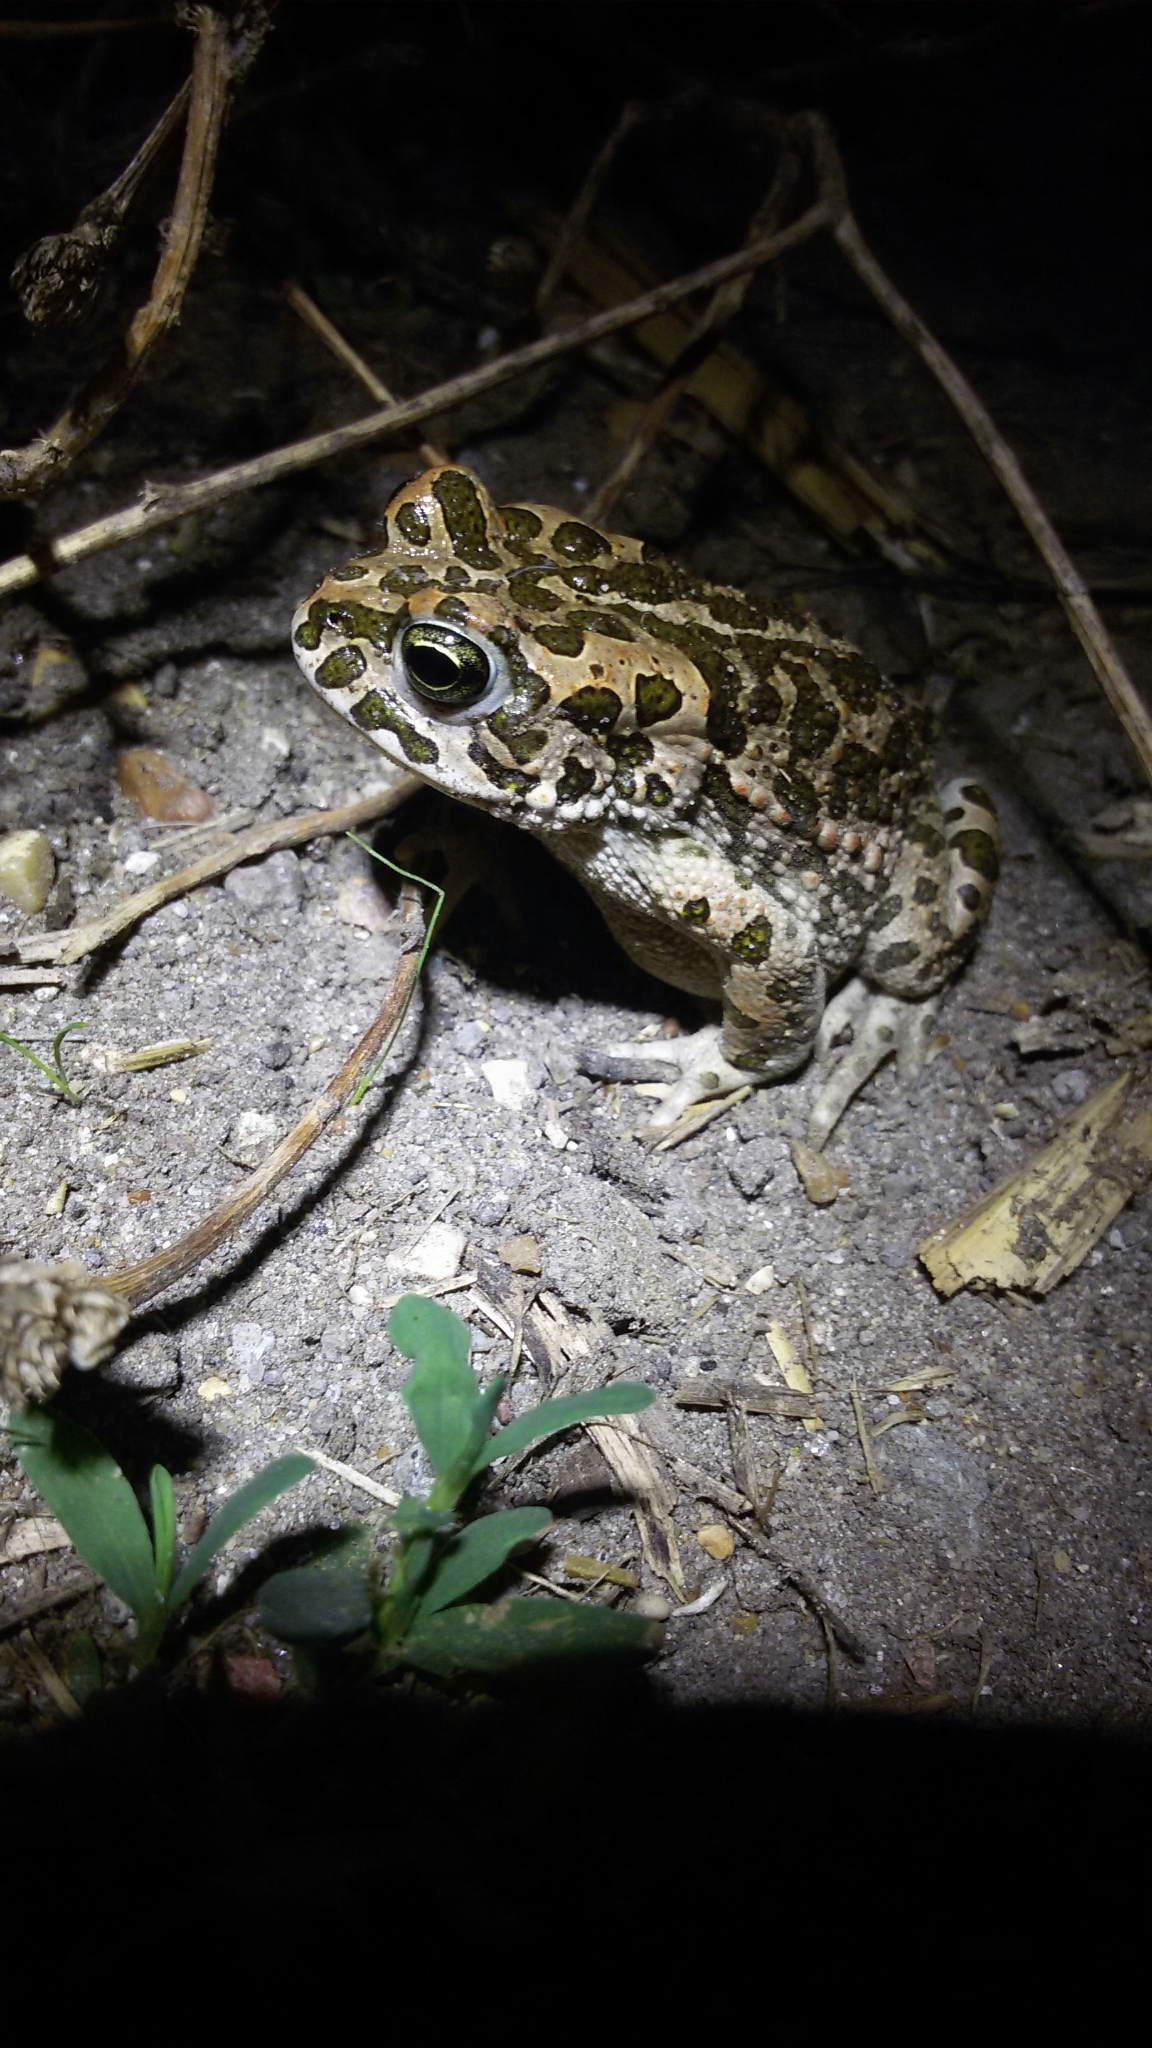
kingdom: Animalia
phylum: Chordata
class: Amphibia
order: Anura
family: Bufonidae
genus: Bufotes
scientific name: Bufotes viridis
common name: European green toad
